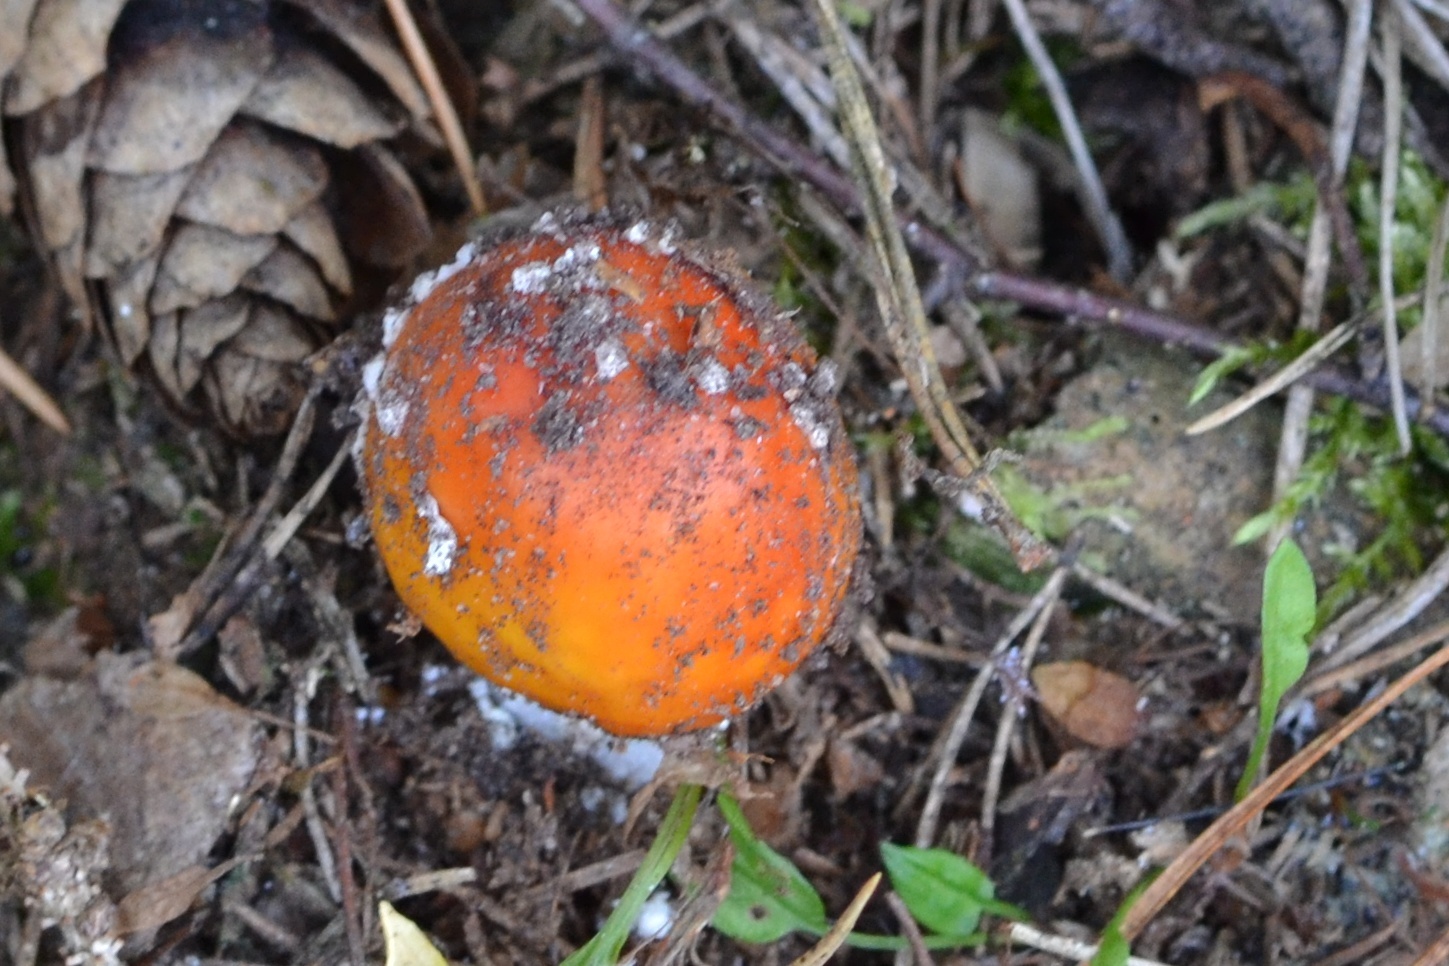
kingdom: Fungi
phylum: Basidiomycota
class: Agaricomycetes
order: Agaricales
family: Amanitaceae
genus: Amanita
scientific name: Amanita muscaria
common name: Fly agaric
